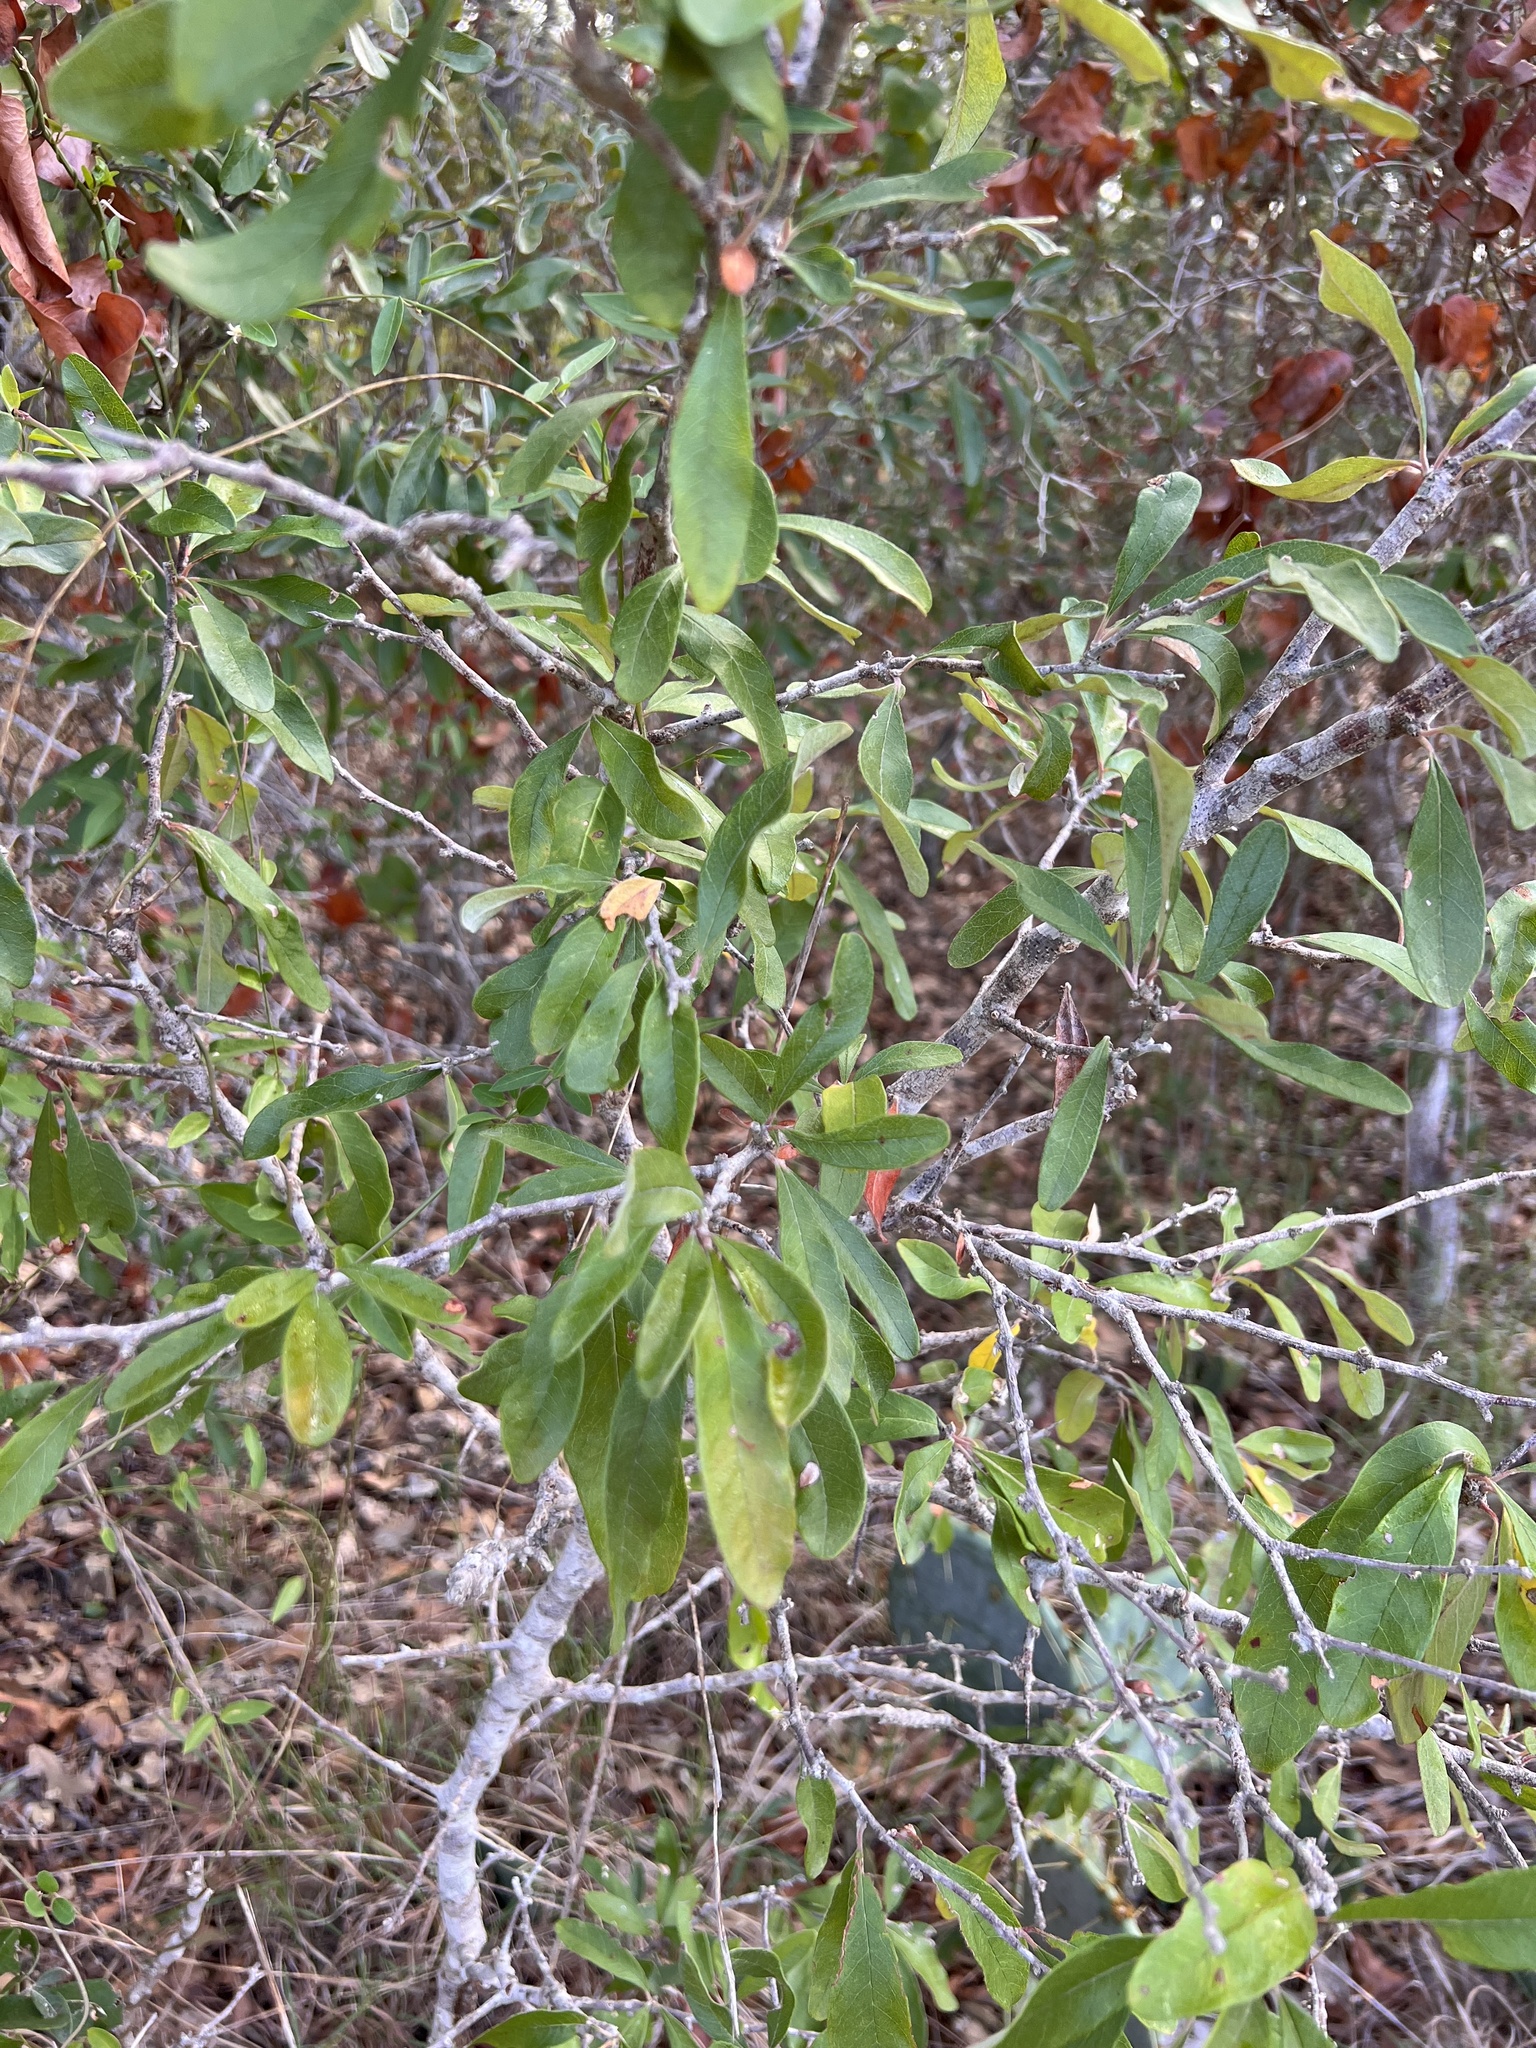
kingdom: Plantae
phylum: Tracheophyta
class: Magnoliopsida
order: Ericales
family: Sapotaceae
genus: Sideroxylon
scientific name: Sideroxylon lanuginosum
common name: Chittamwood
